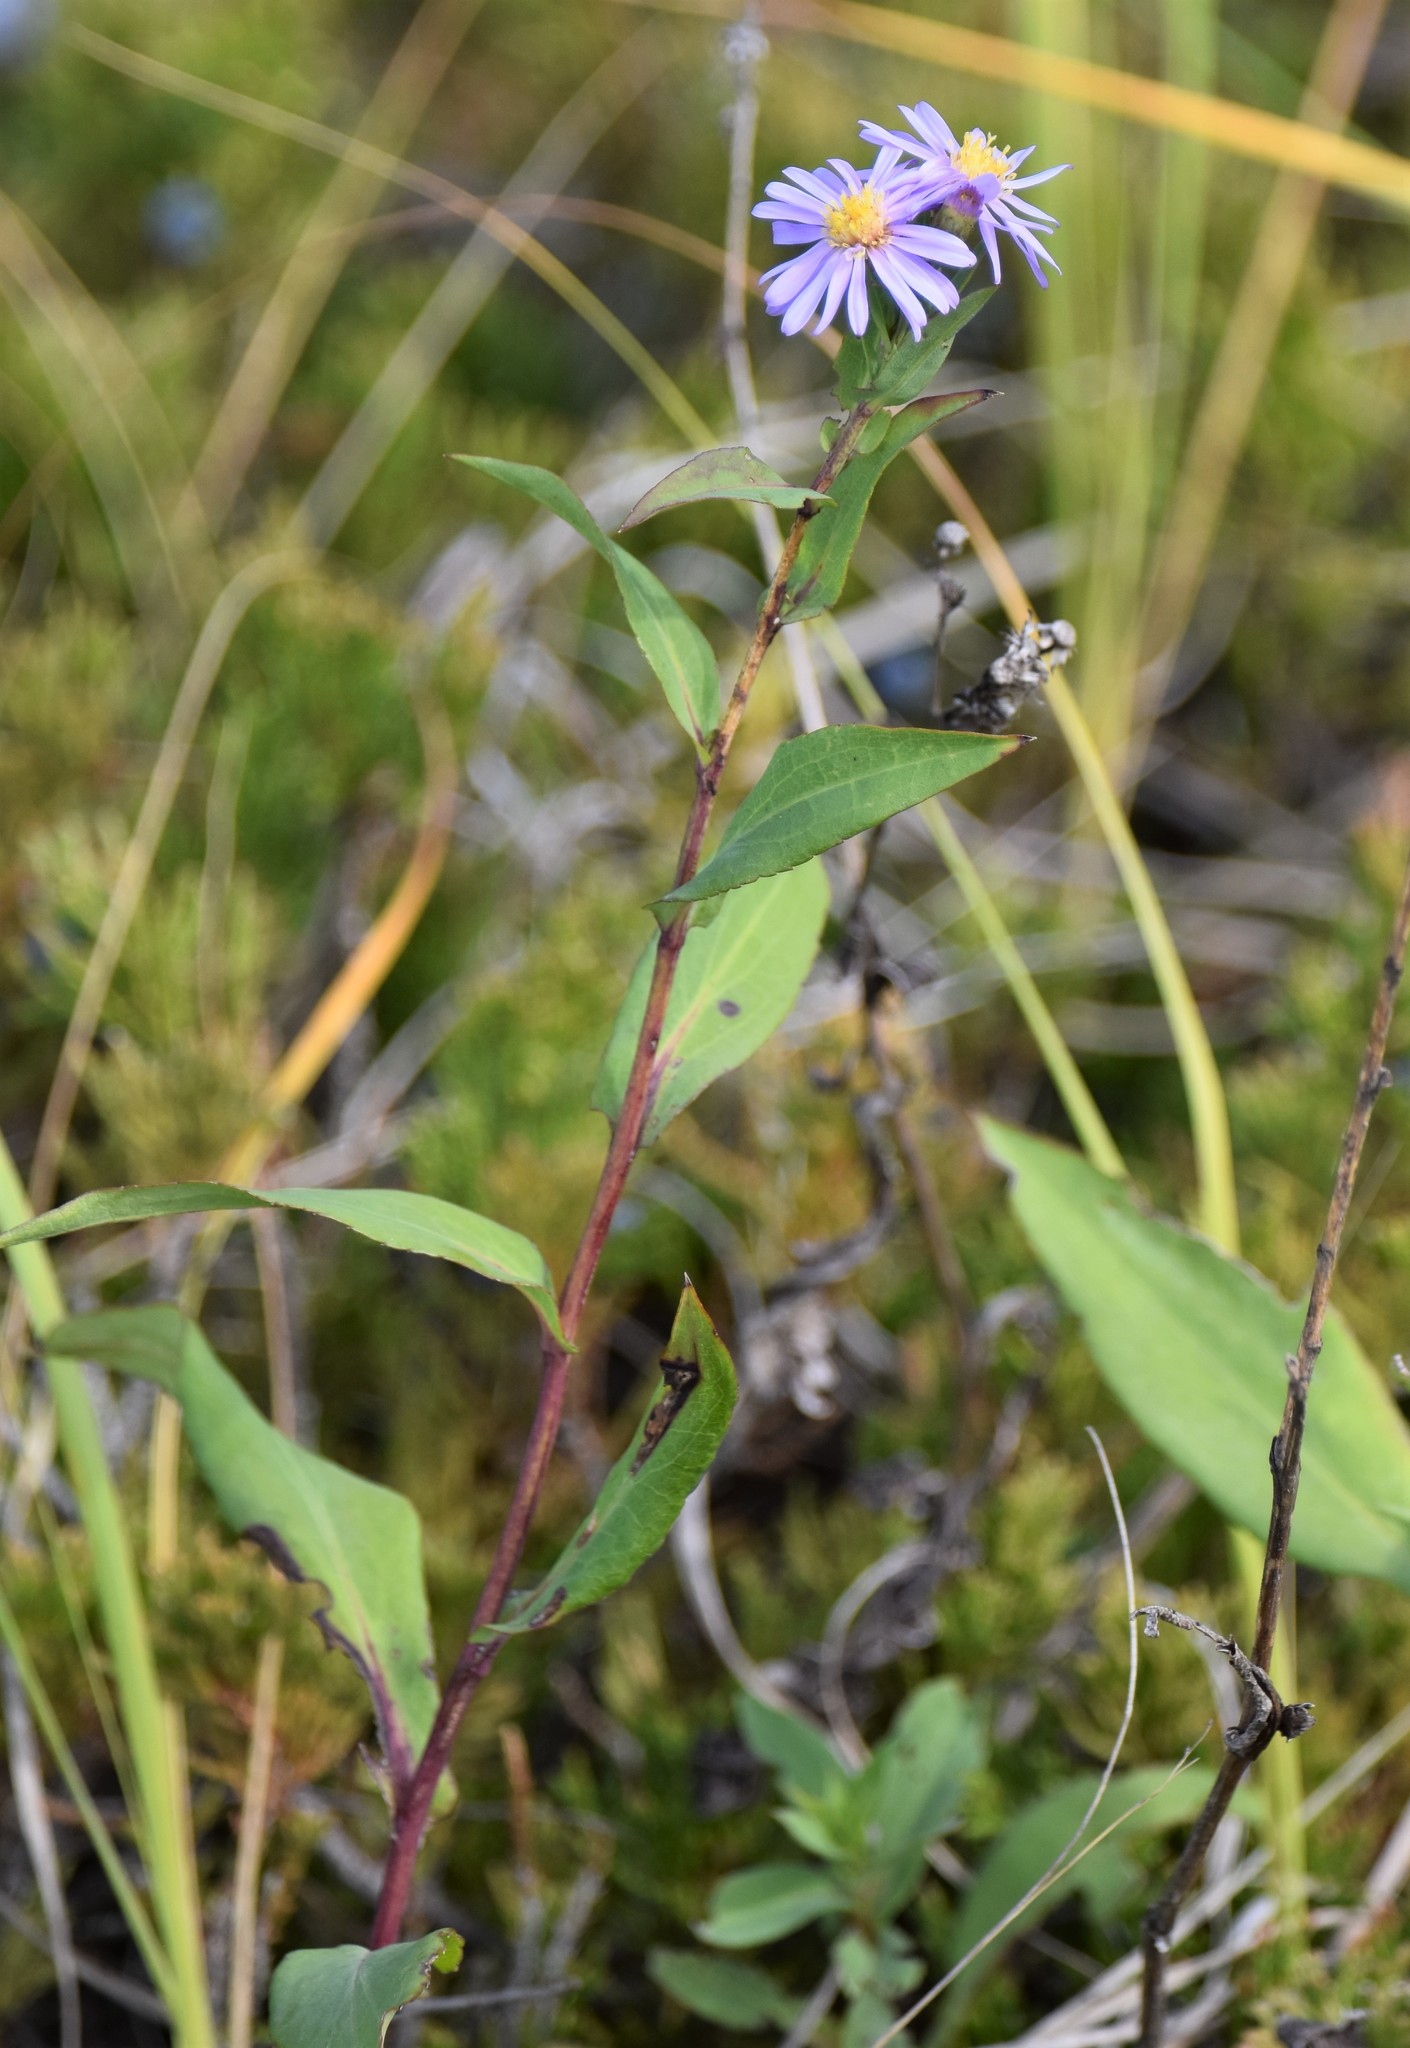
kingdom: Plantae
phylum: Tracheophyta
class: Magnoliopsida
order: Asterales
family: Asteraceae
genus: Symphyotrichum
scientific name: Symphyotrichum laeve
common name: Glaucous aster
